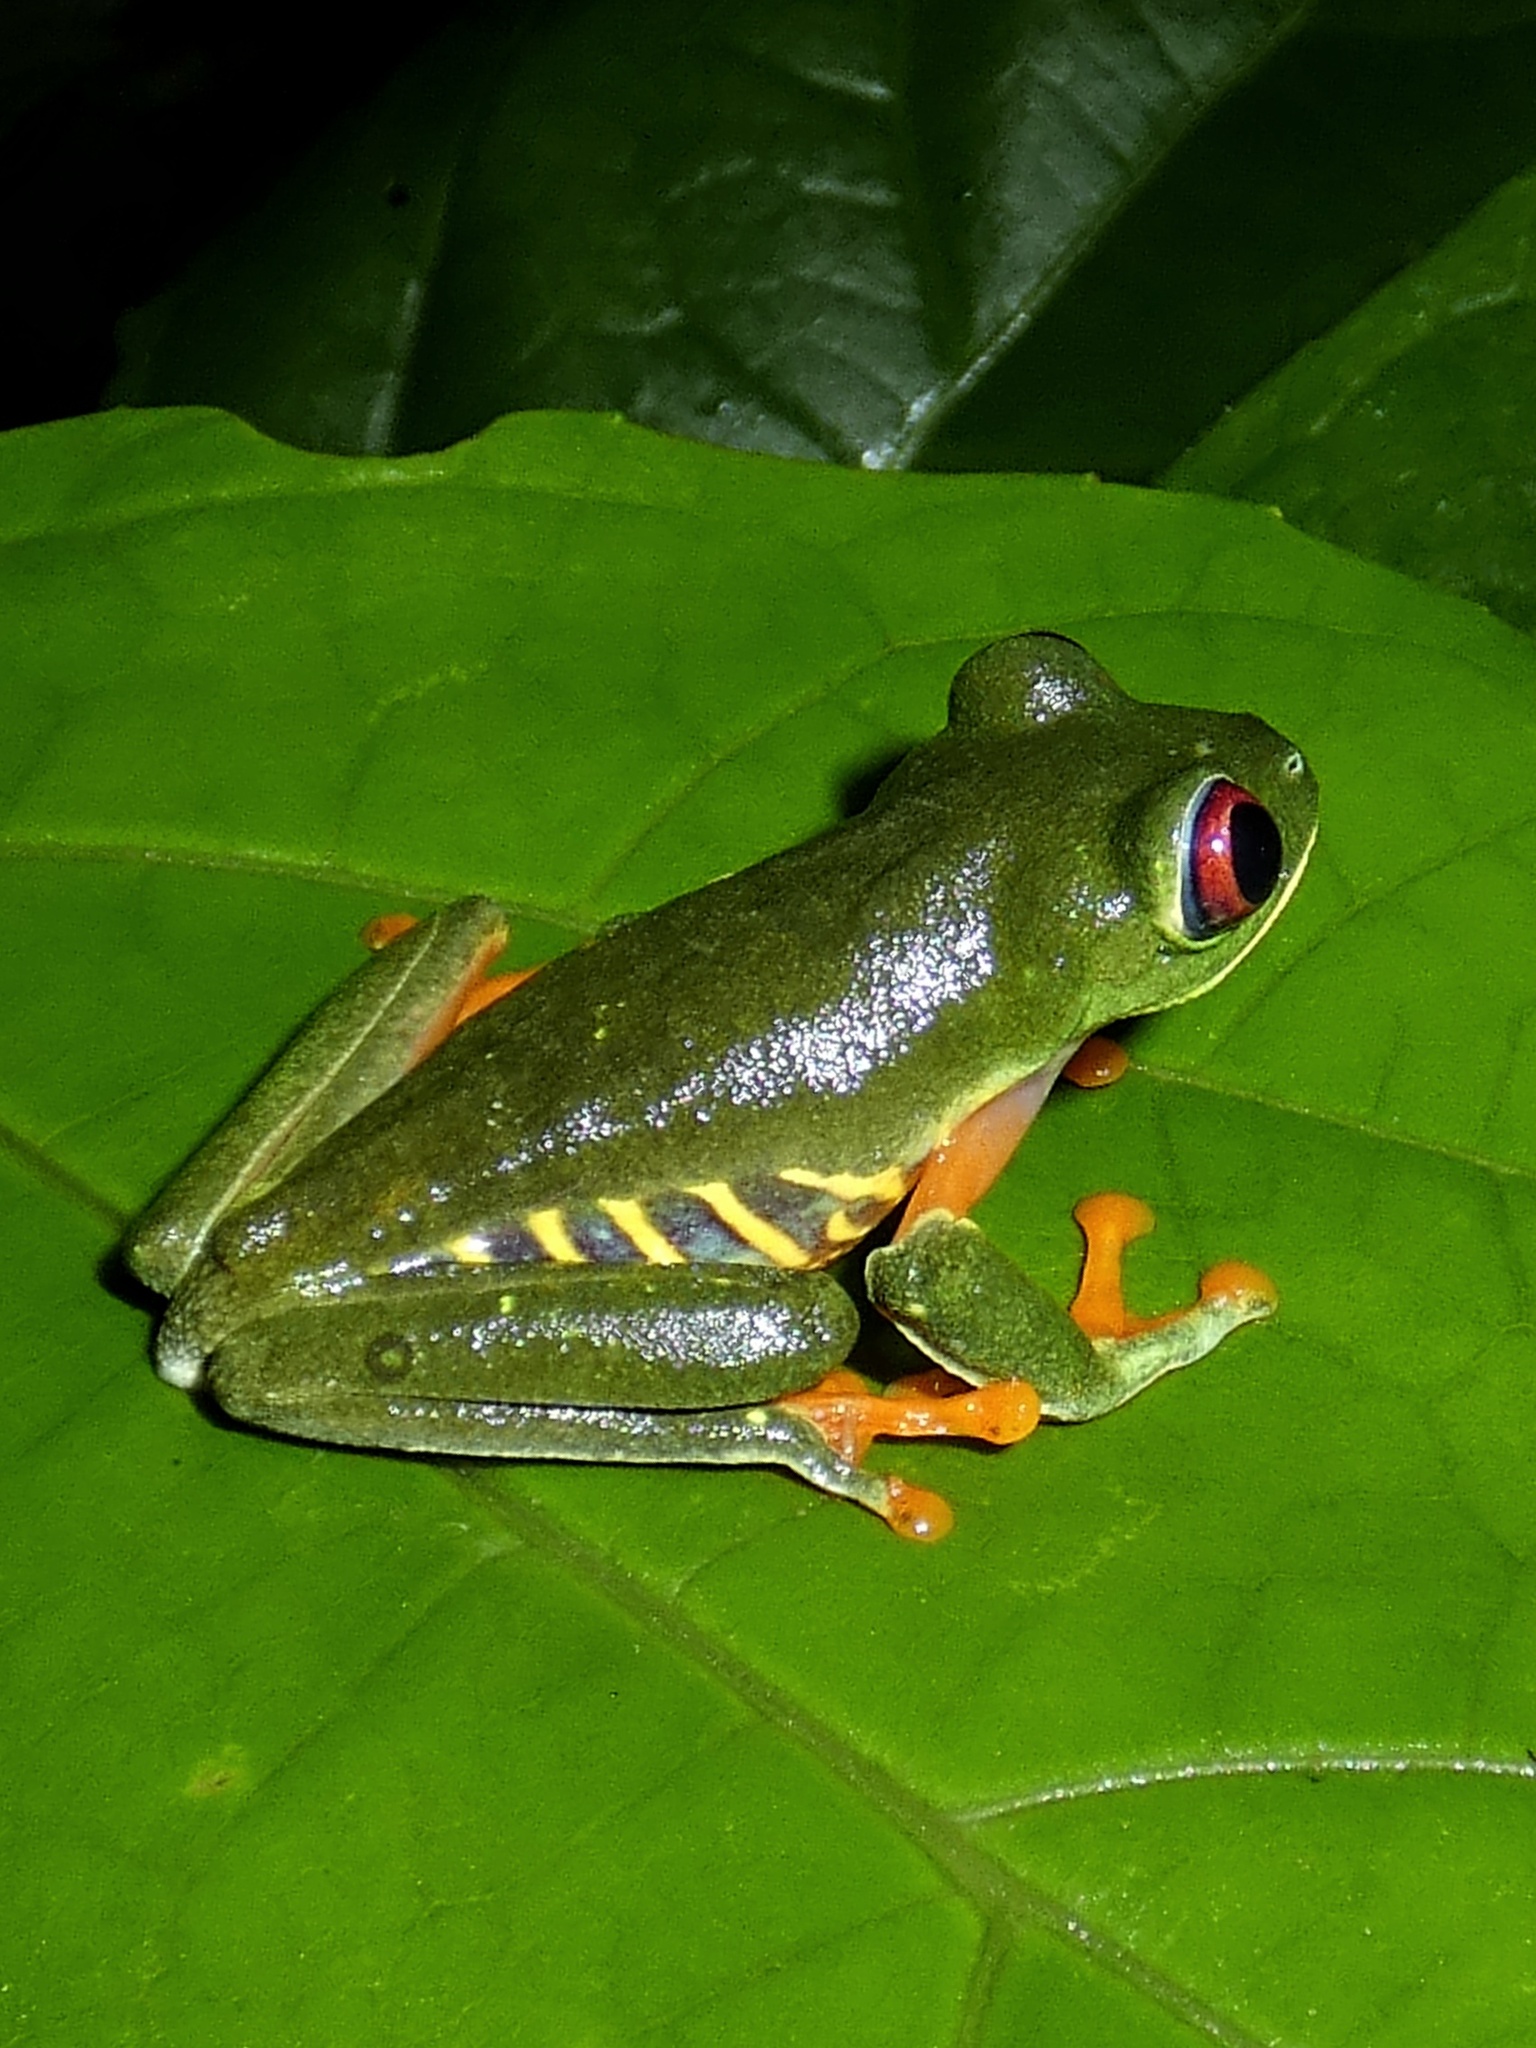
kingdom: Animalia
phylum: Chordata
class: Amphibia
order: Anura
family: Phyllomedusidae
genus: Agalychnis
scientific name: Agalychnis callidryas
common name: Red-eyed treefrog
